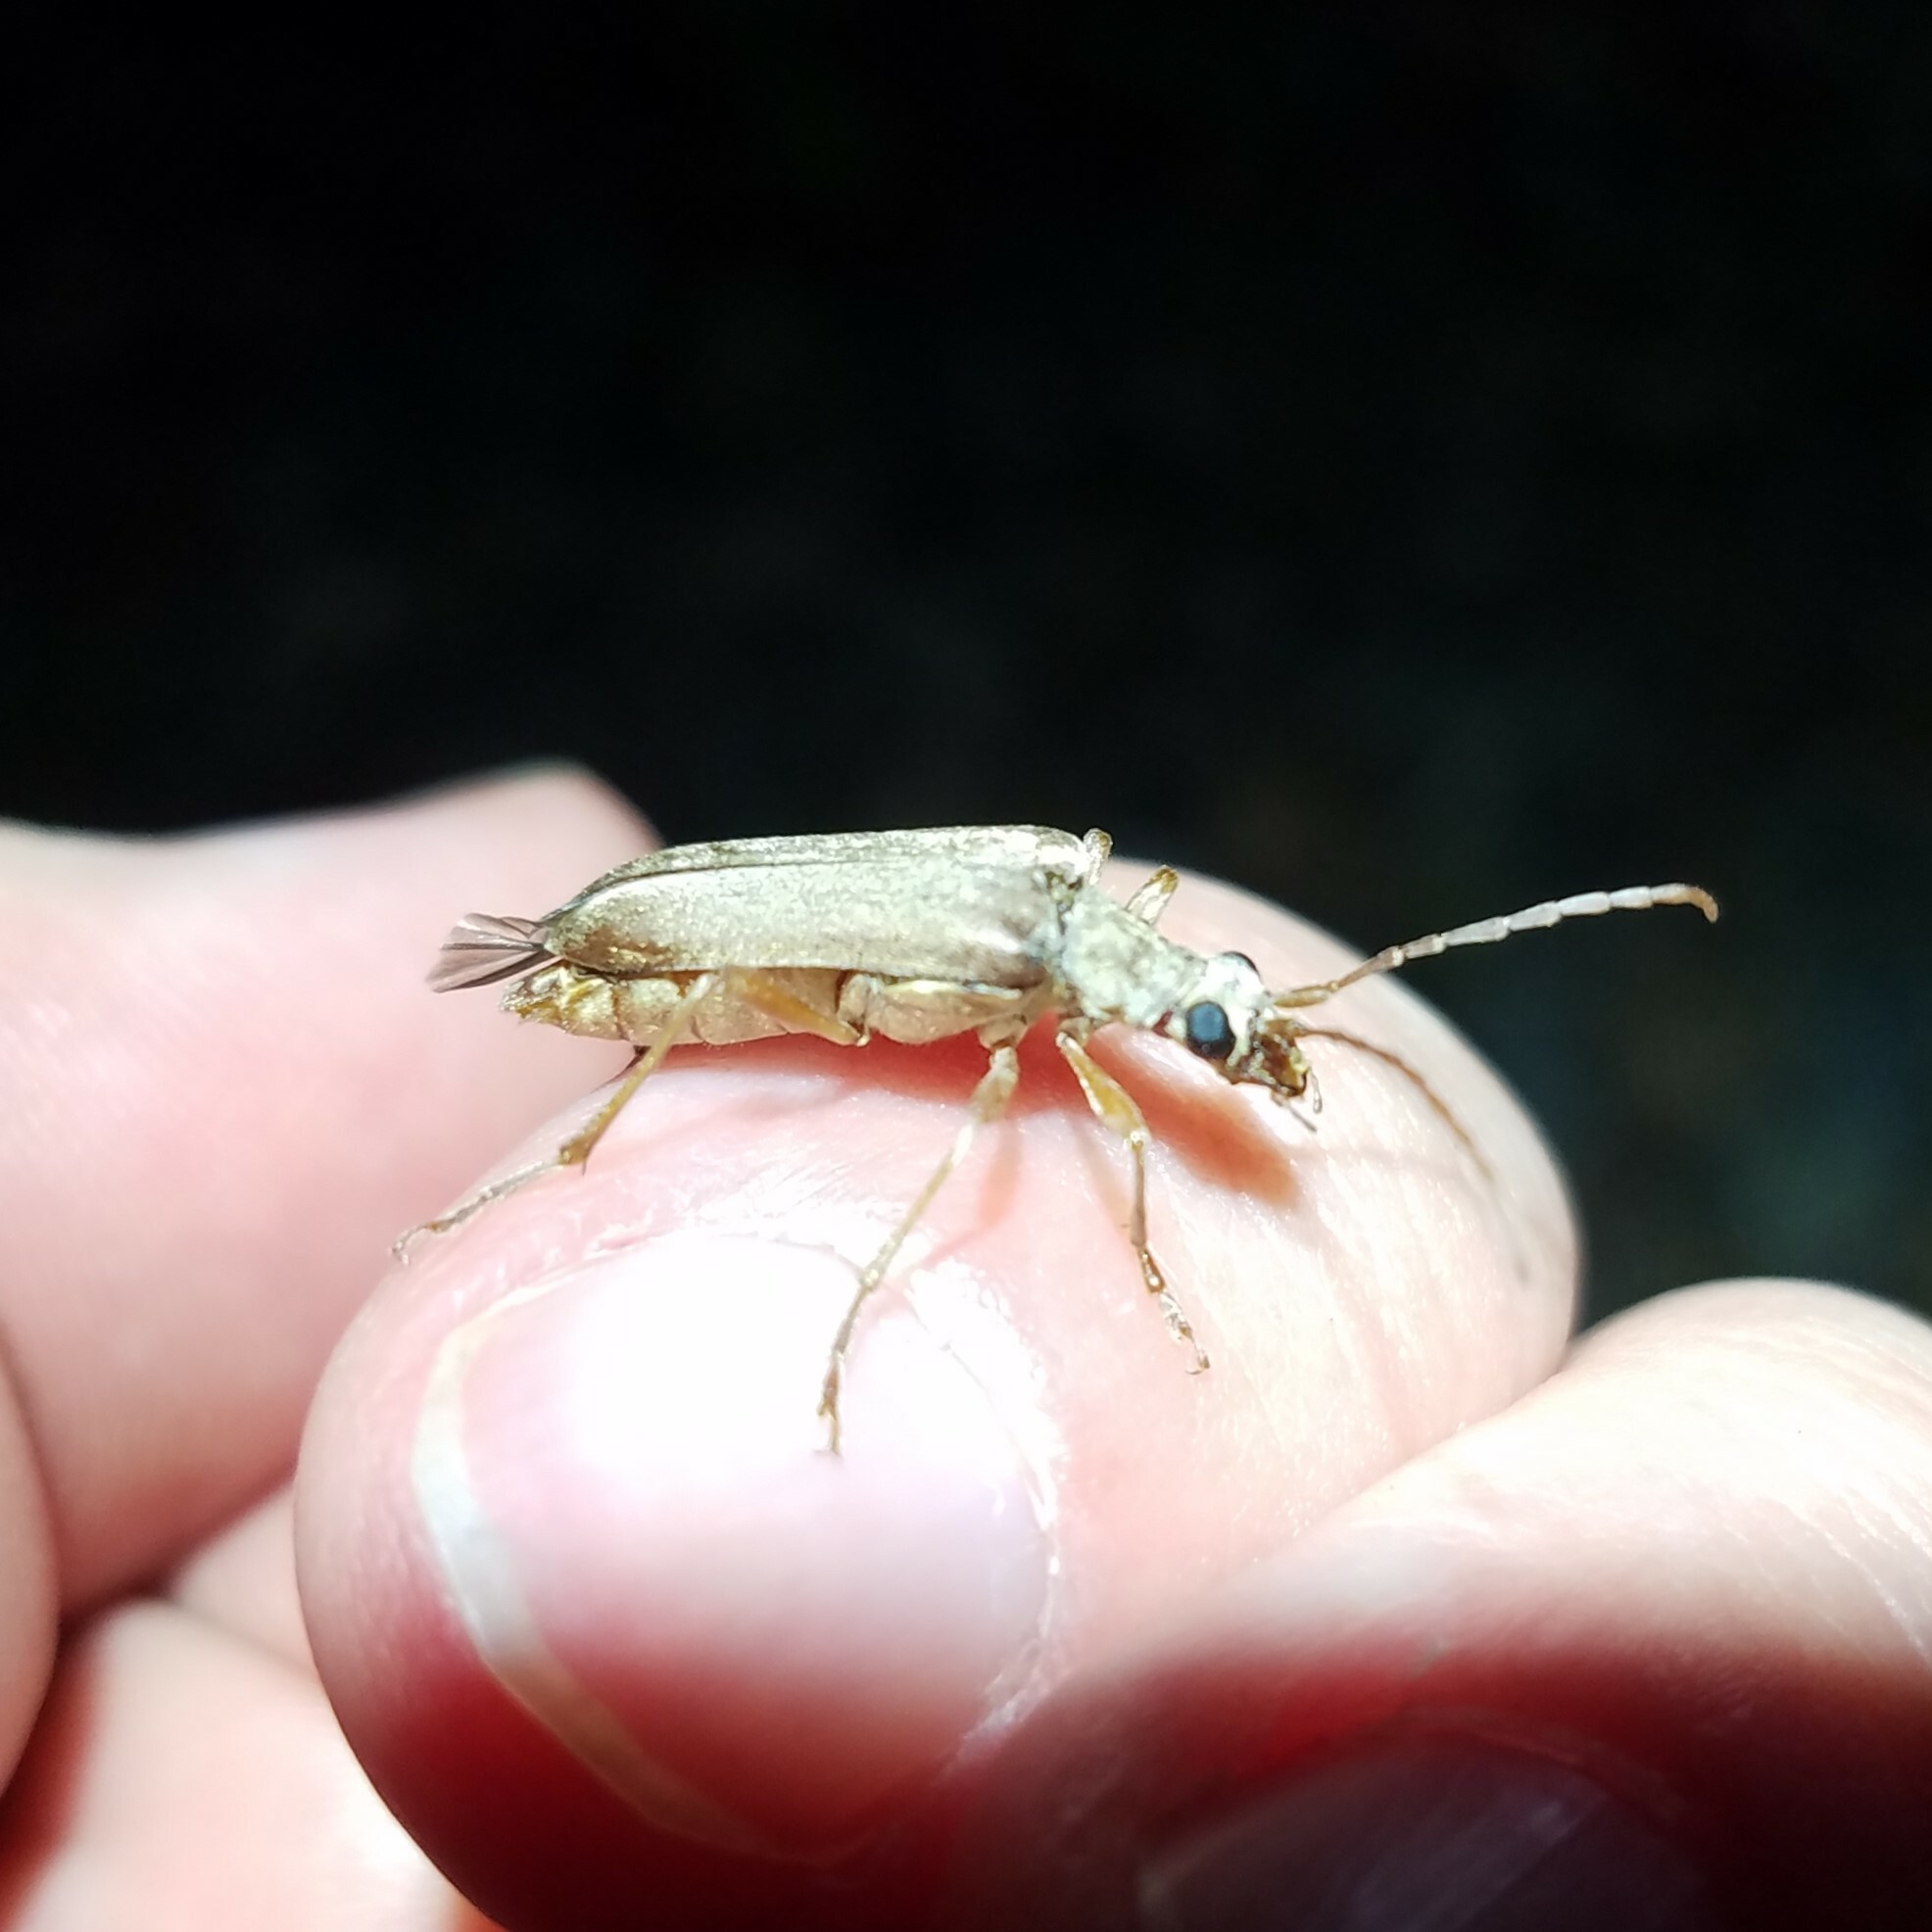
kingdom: Animalia
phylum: Arthropoda
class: Insecta
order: Coleoptera
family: Cerambycidae
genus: Stenocorus
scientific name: Stenocorus cinnamopterus
